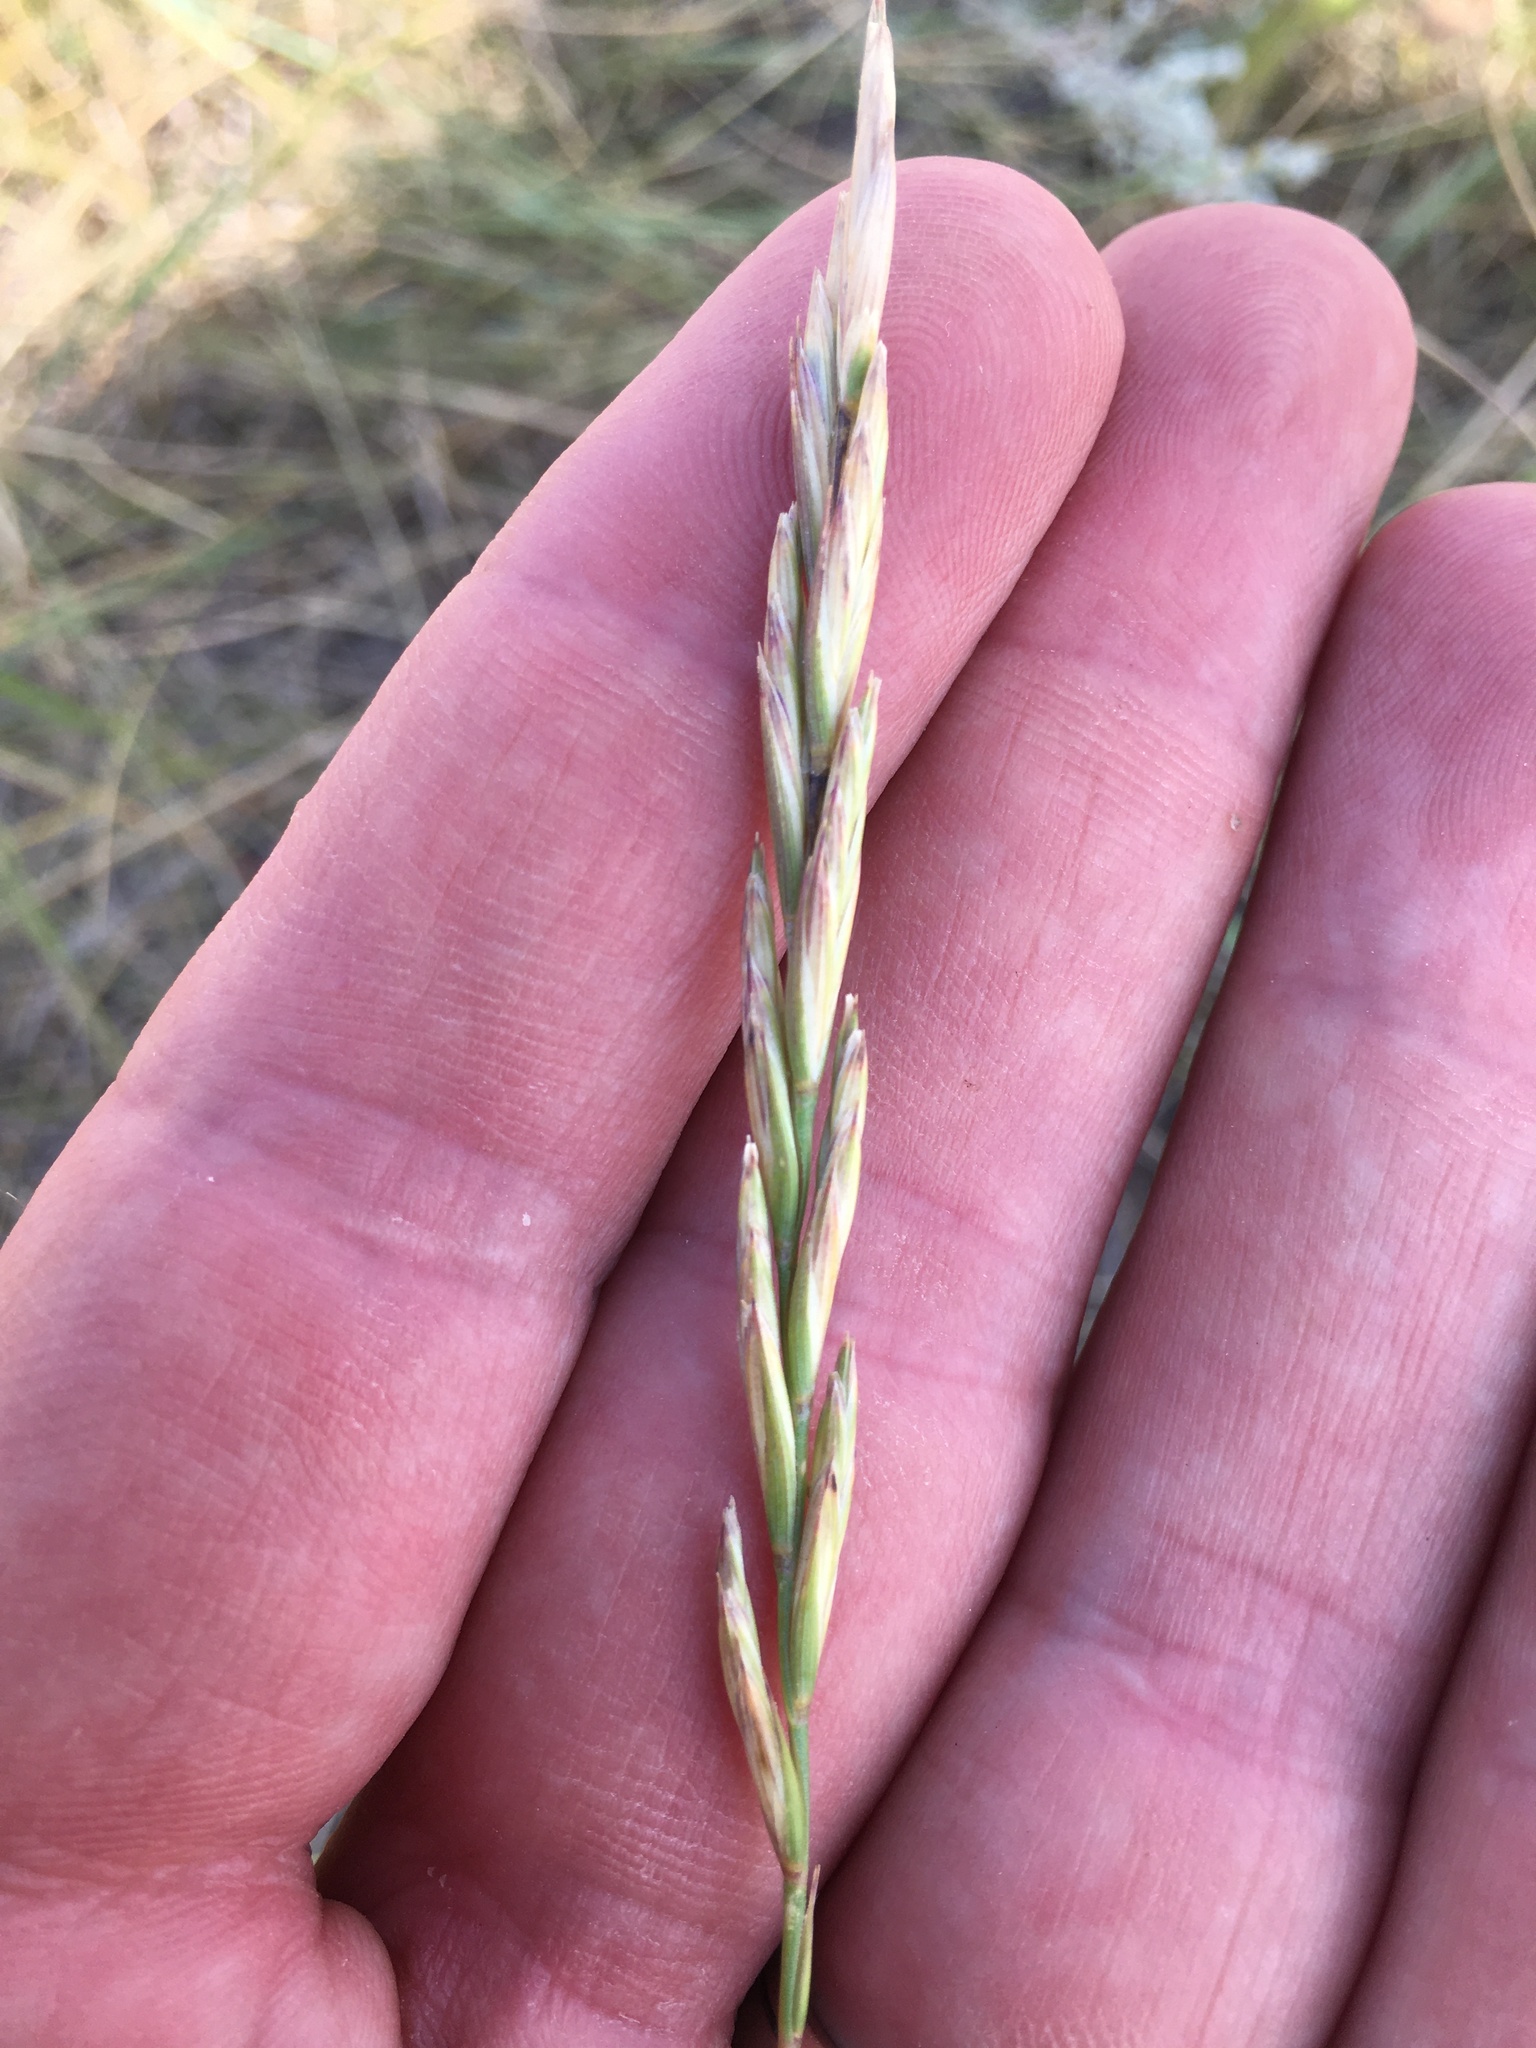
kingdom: Plantae
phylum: Tracheophyta
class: Liliopsida
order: Poales
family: Poaceae
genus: Elymus
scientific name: Elymus smithii
